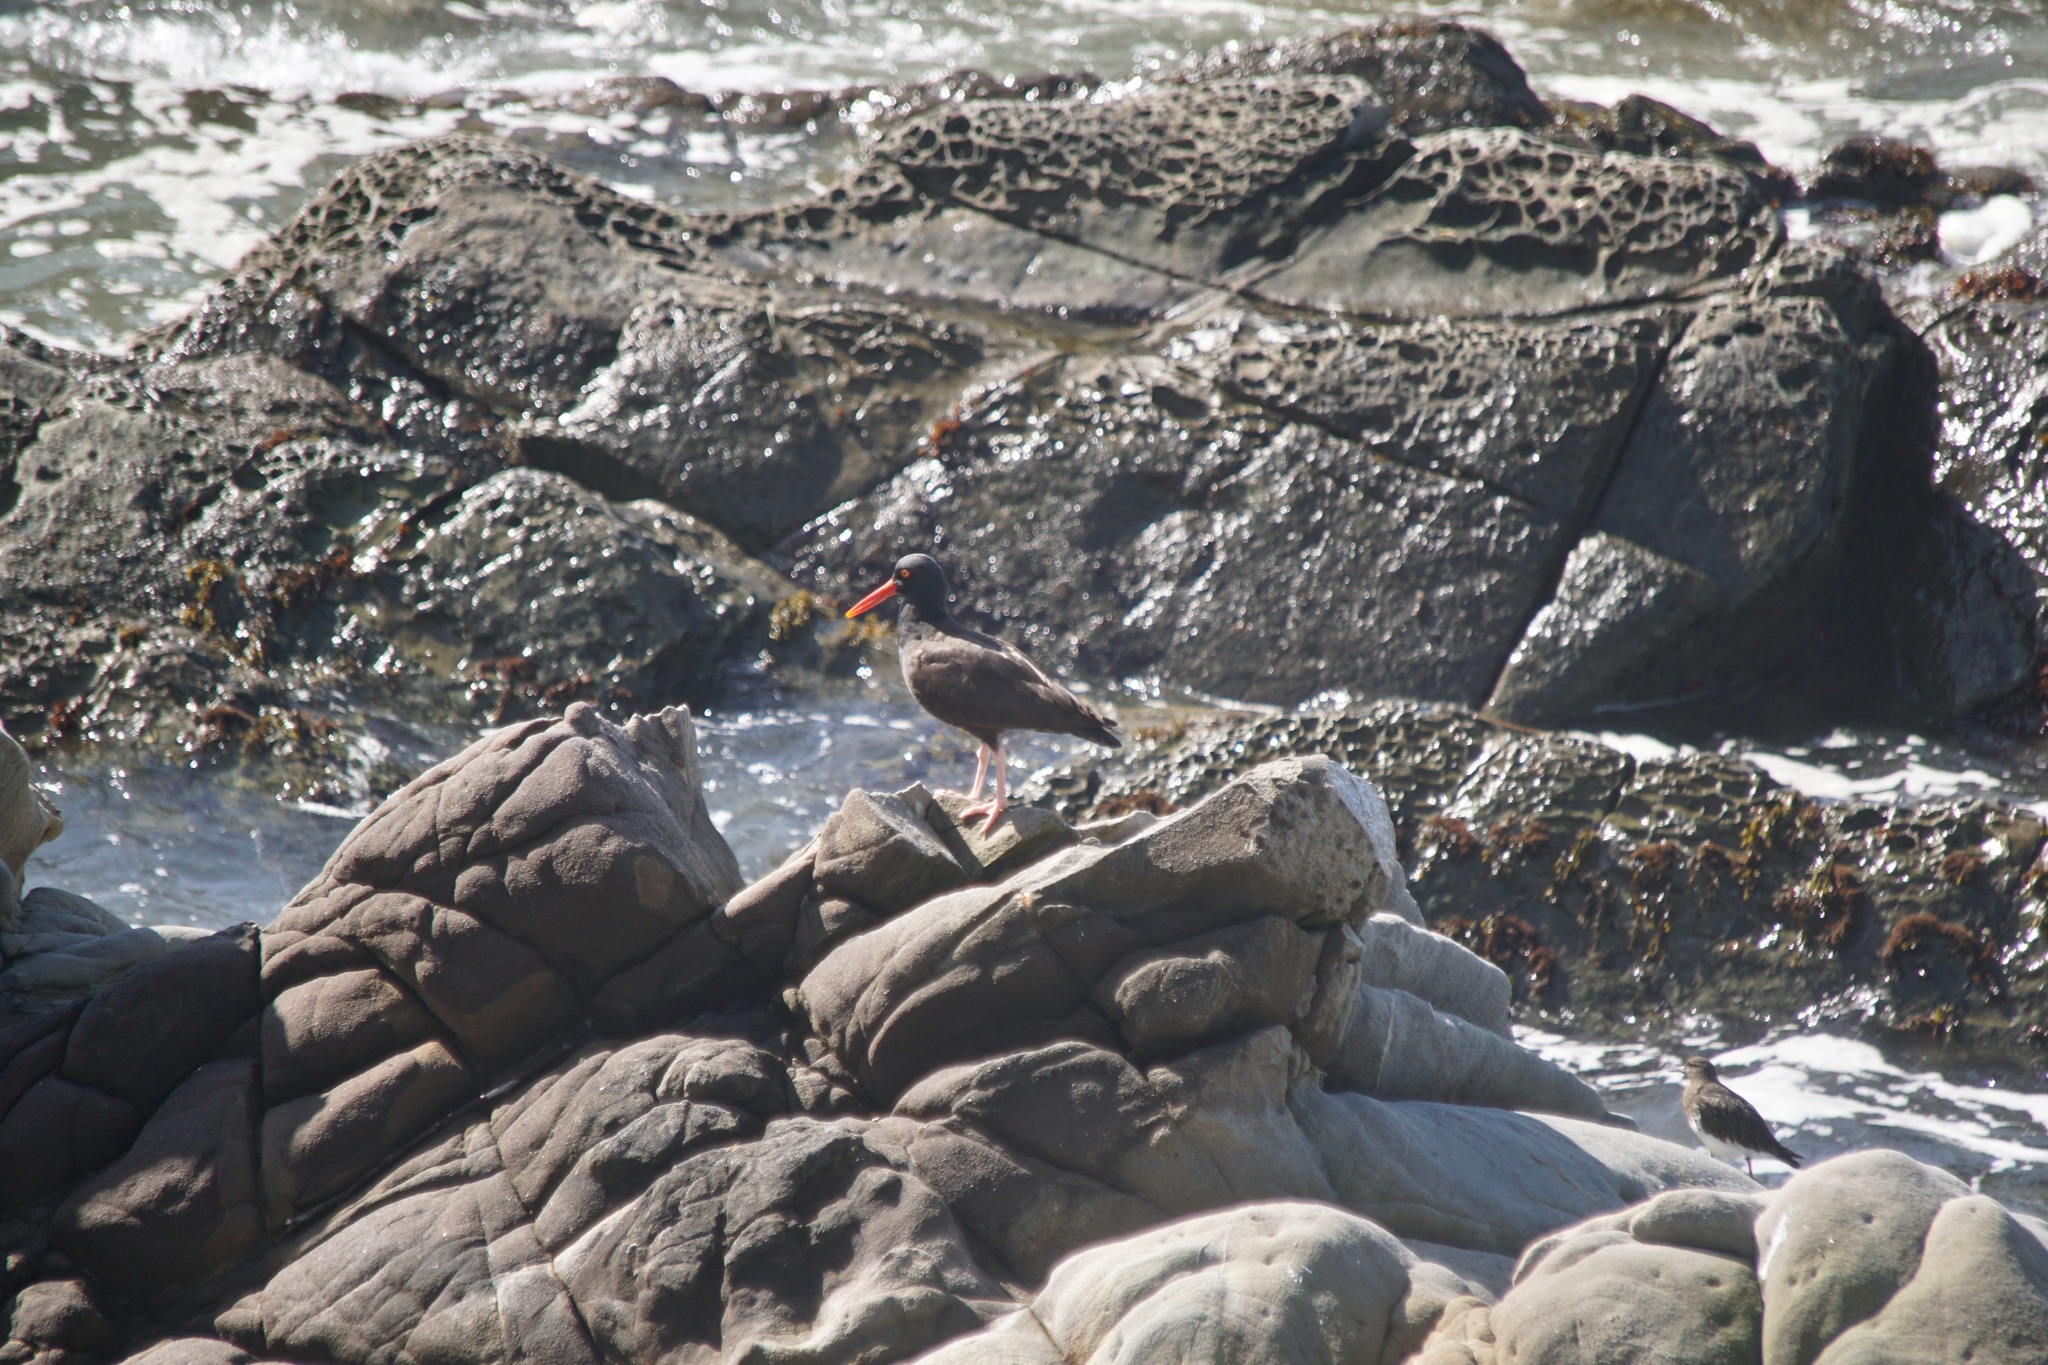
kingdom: Animalia
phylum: Chordata
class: Aves
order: Charadriiformes
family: Haematopodidae
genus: Haematopus
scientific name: Haematopus bachmani
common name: Black oystercatcher
